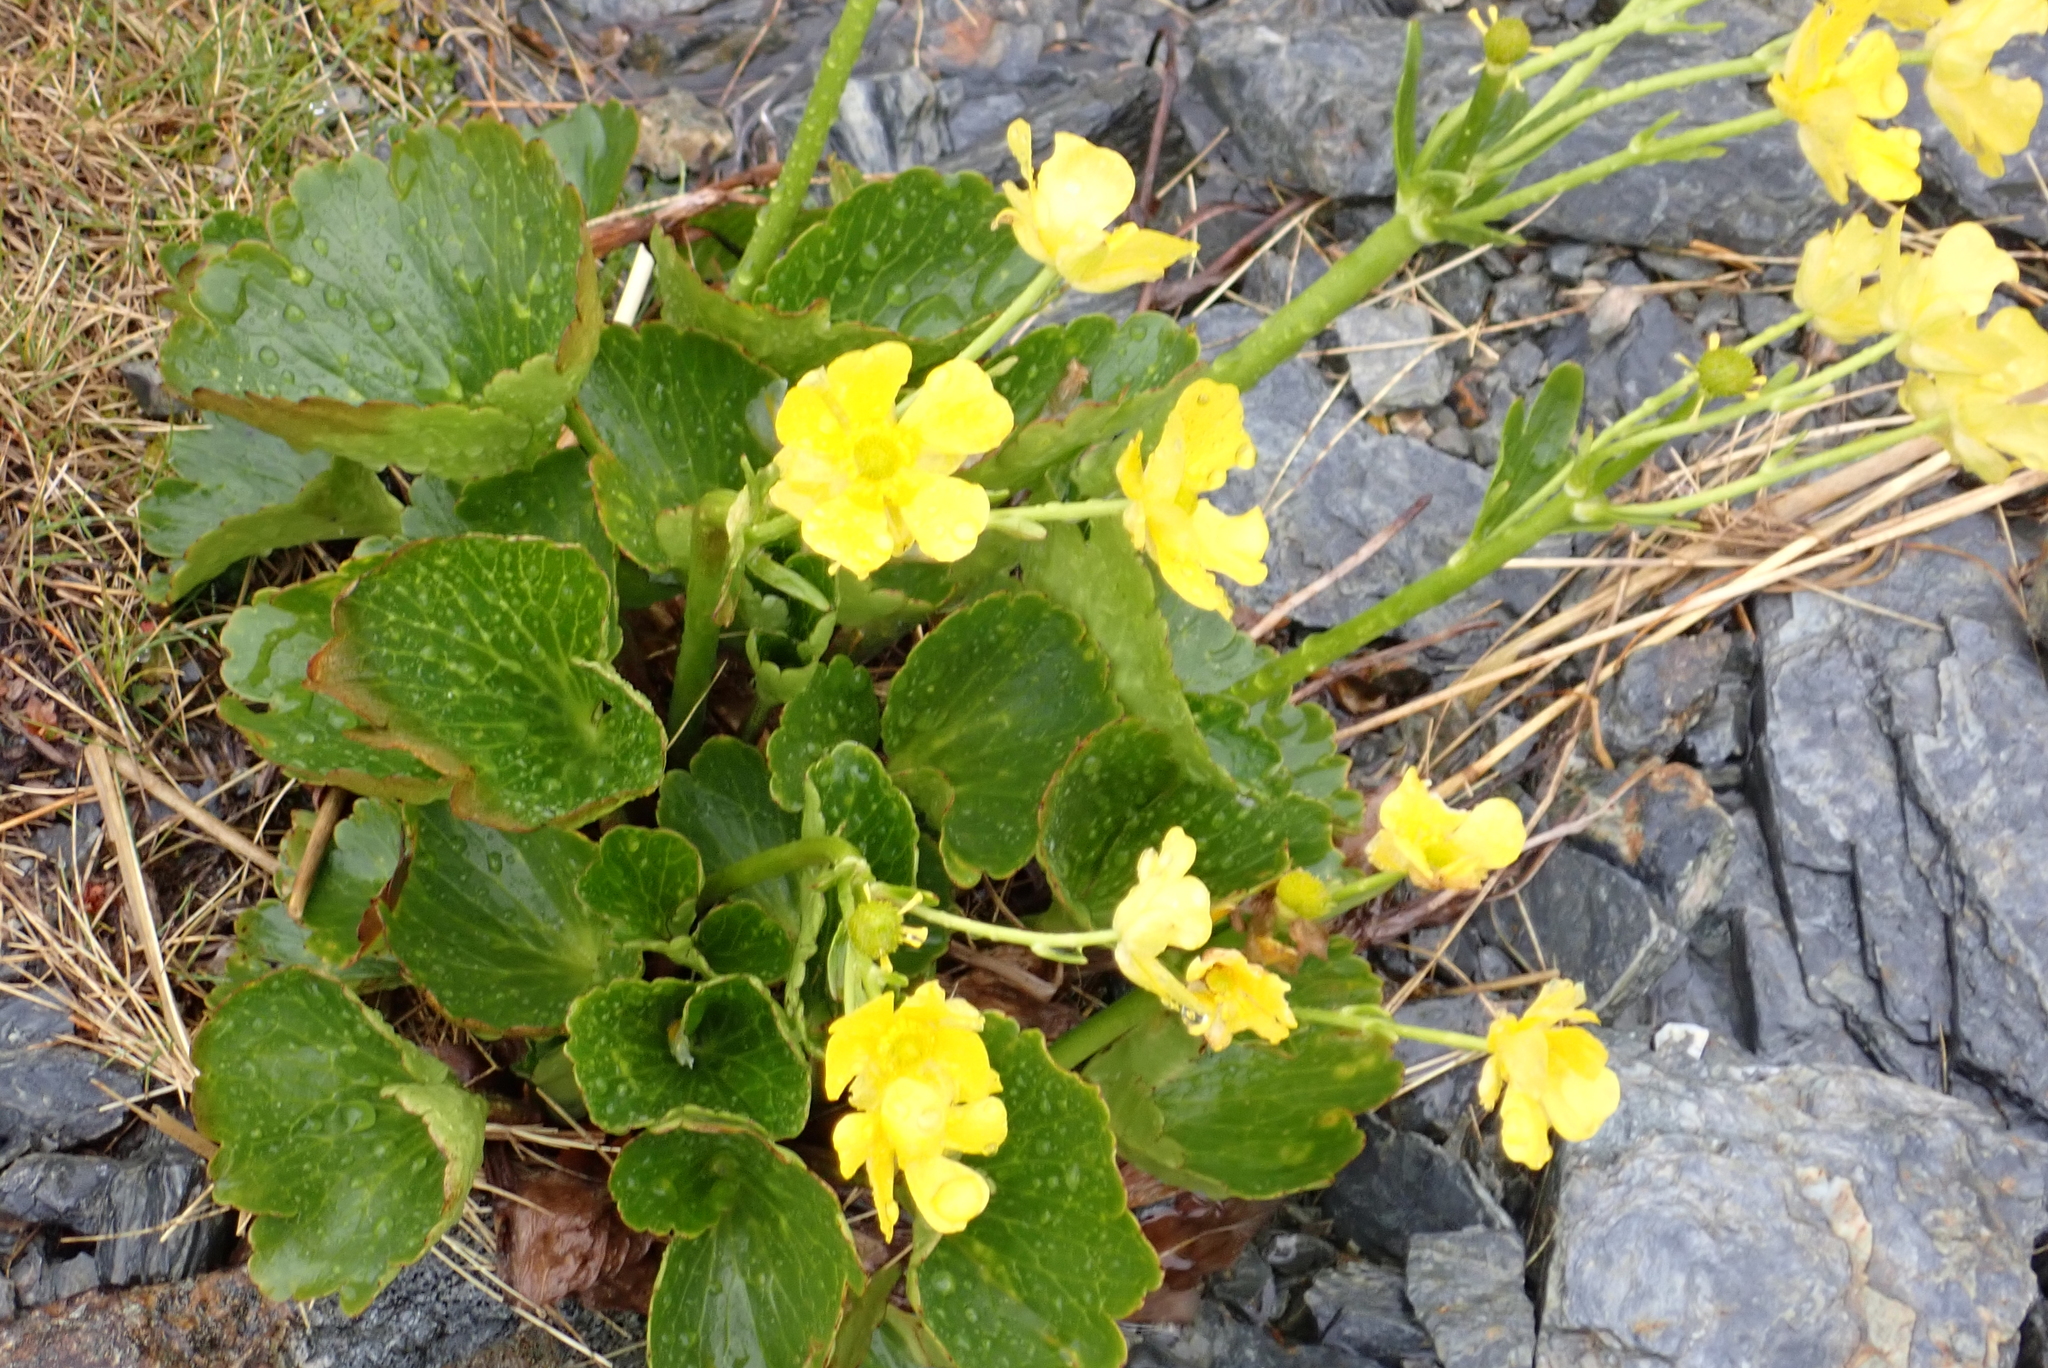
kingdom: Plantae
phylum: Tracheophyta
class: Magnoliopsida
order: Ranunculales
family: Ranunculaceae
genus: Ranunculus
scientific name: Ranunculus insignis
